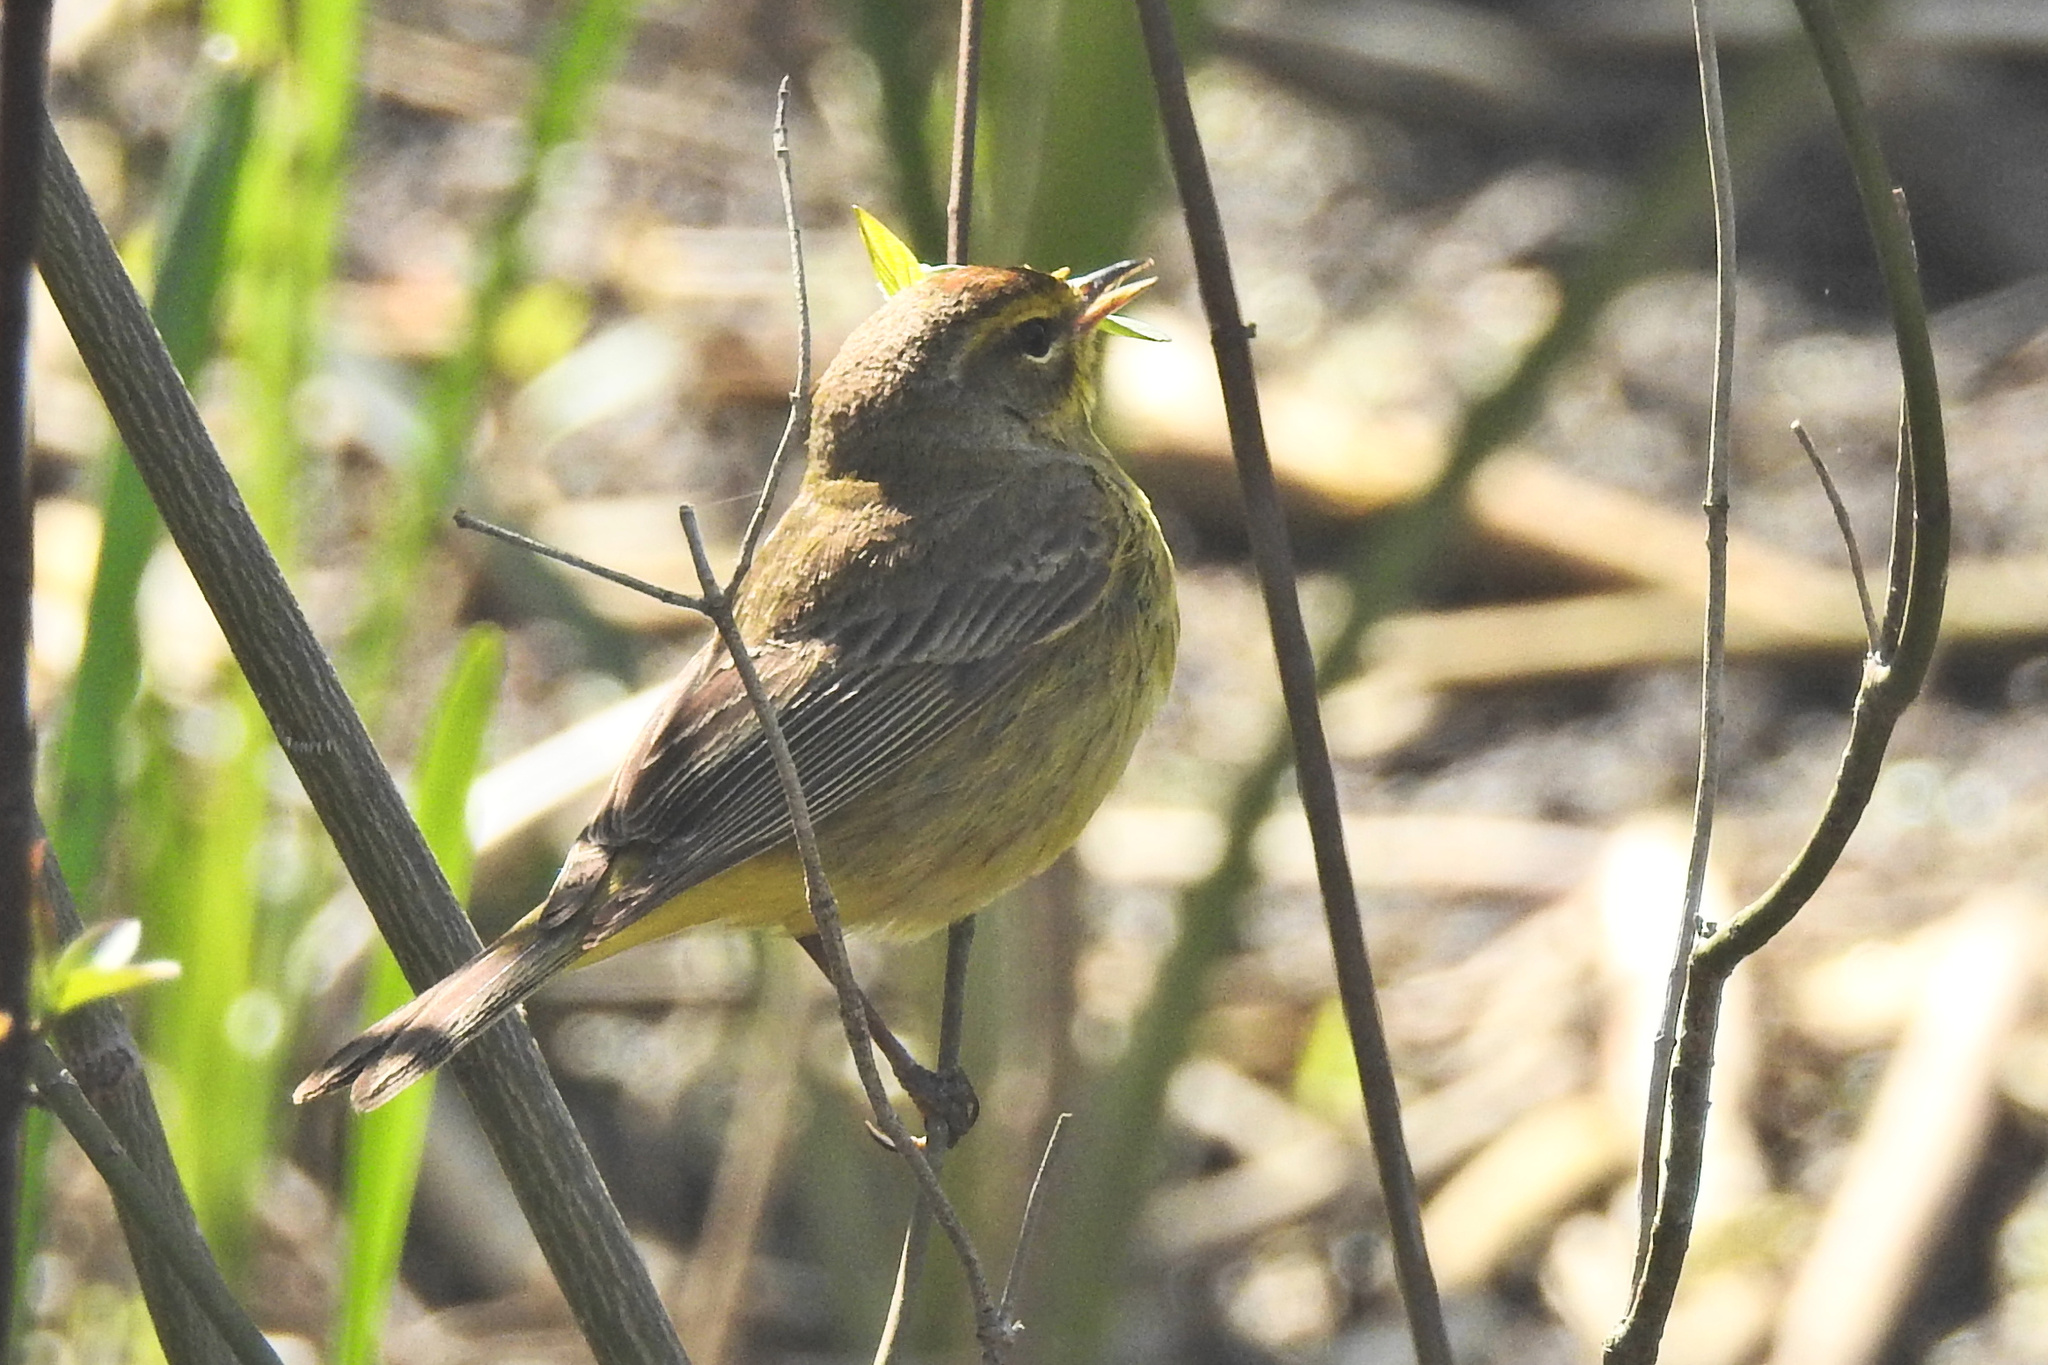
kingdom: Animalia
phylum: Chordata
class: Aves
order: Passeriformes
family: Parulidae
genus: Setophaga
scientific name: Setophaga palmarum
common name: Palm warbler
